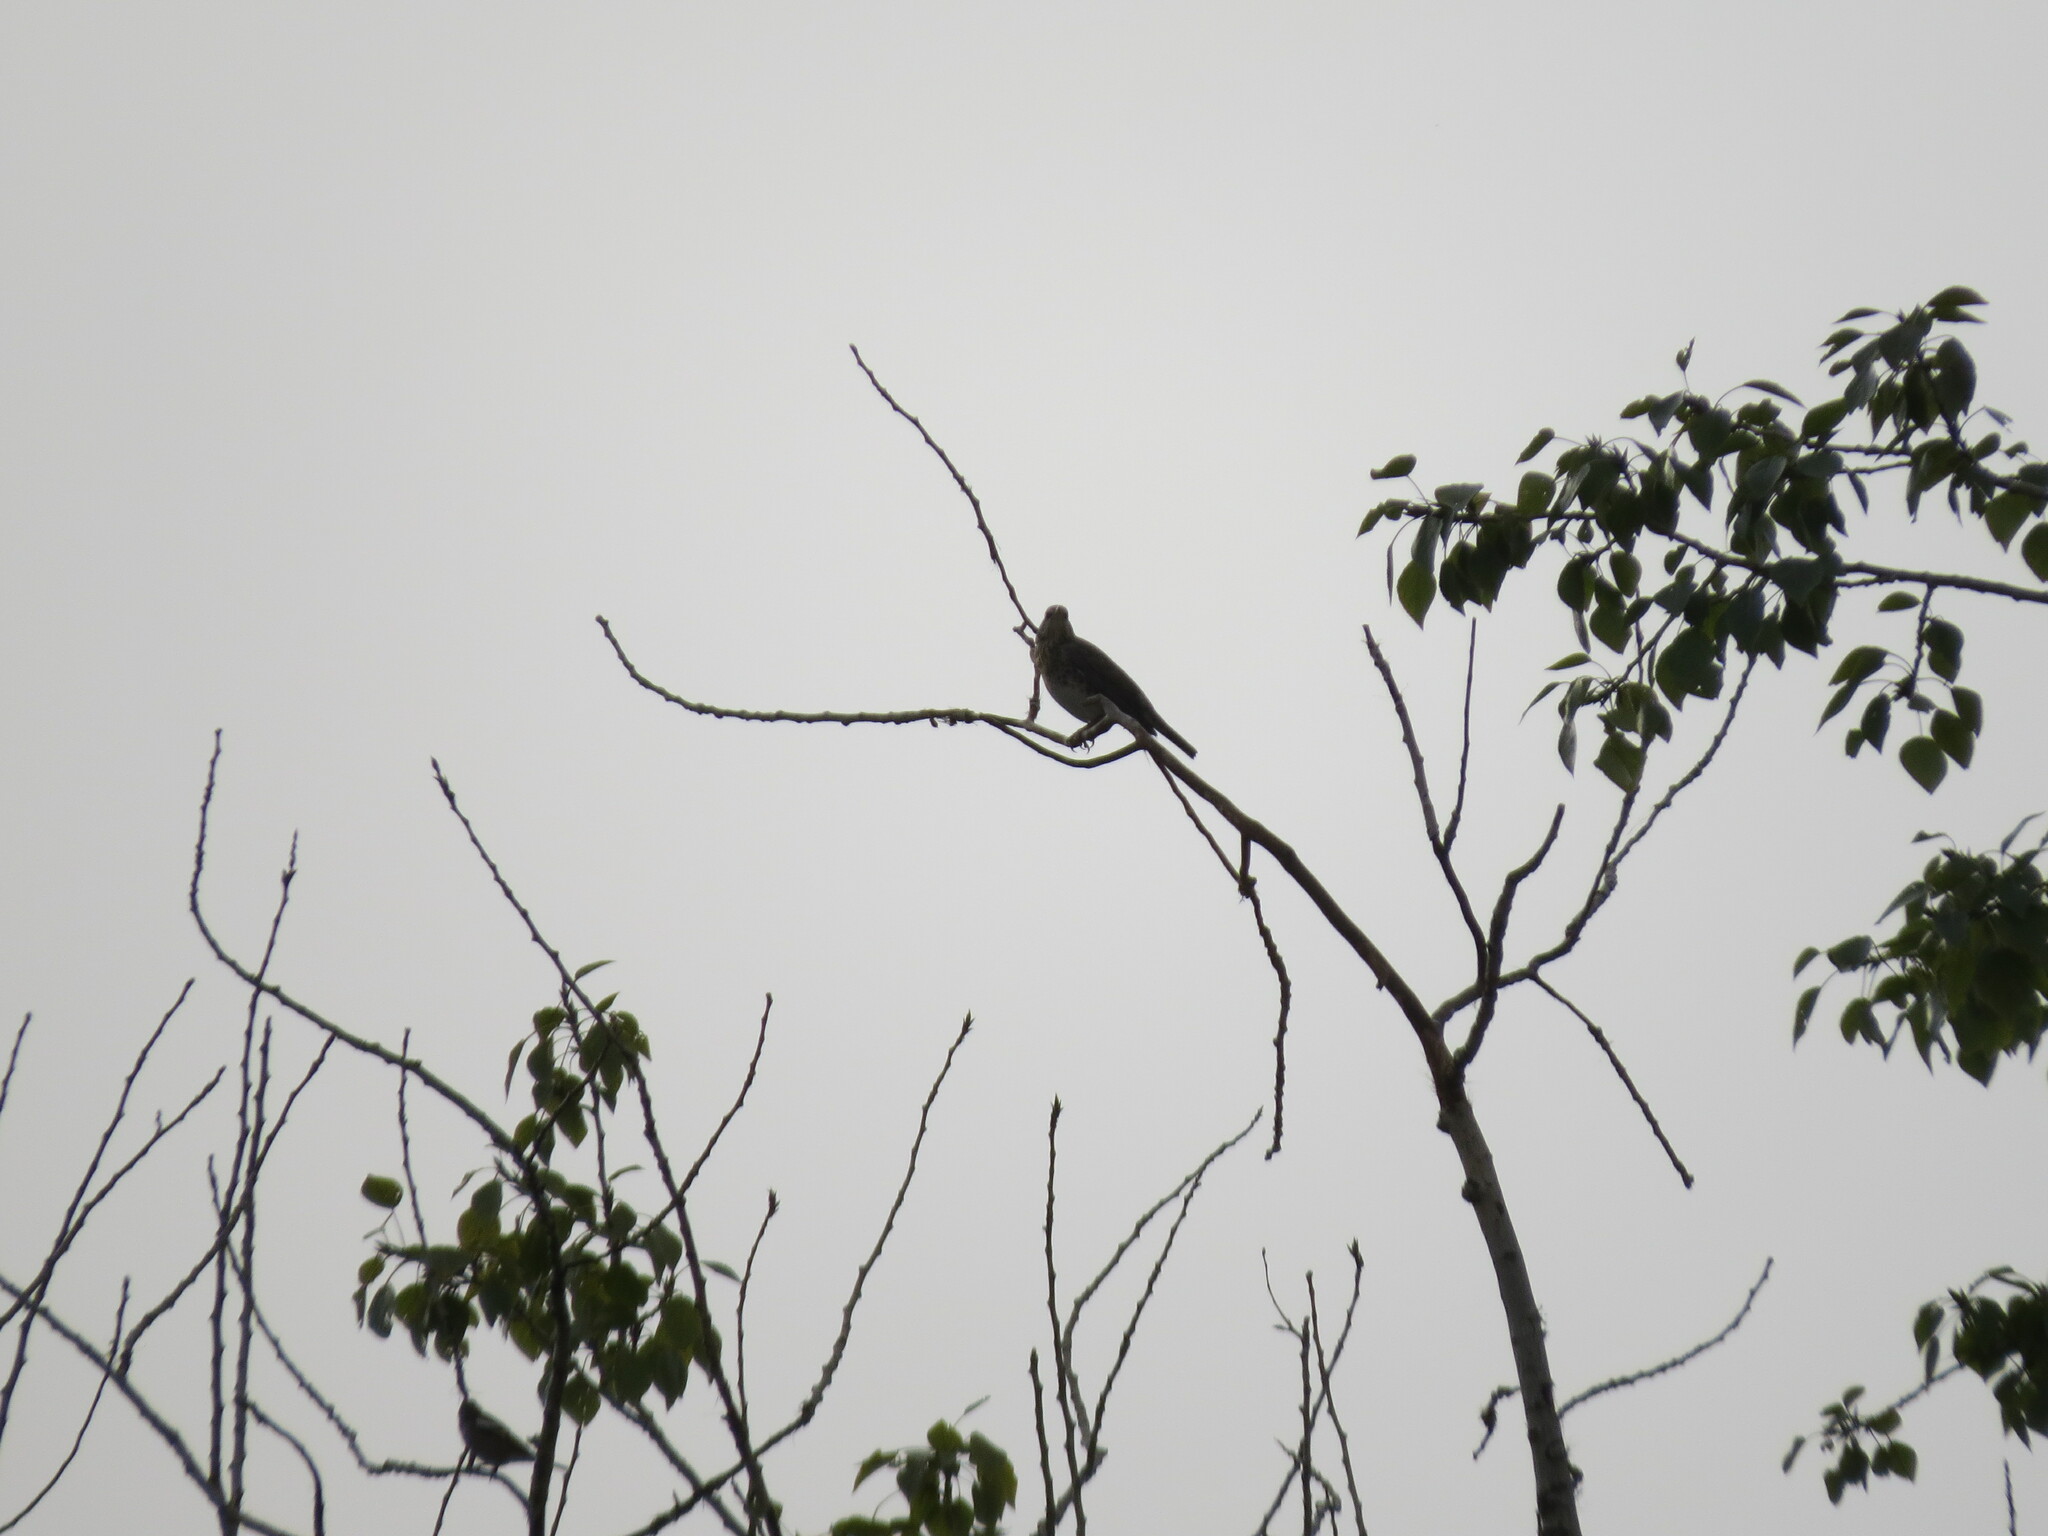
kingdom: Animalia
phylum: Chordata
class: Aves
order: Passeriformes
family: Turdidae
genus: Turdus
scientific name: Turdus pilaris
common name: Fieldfare
